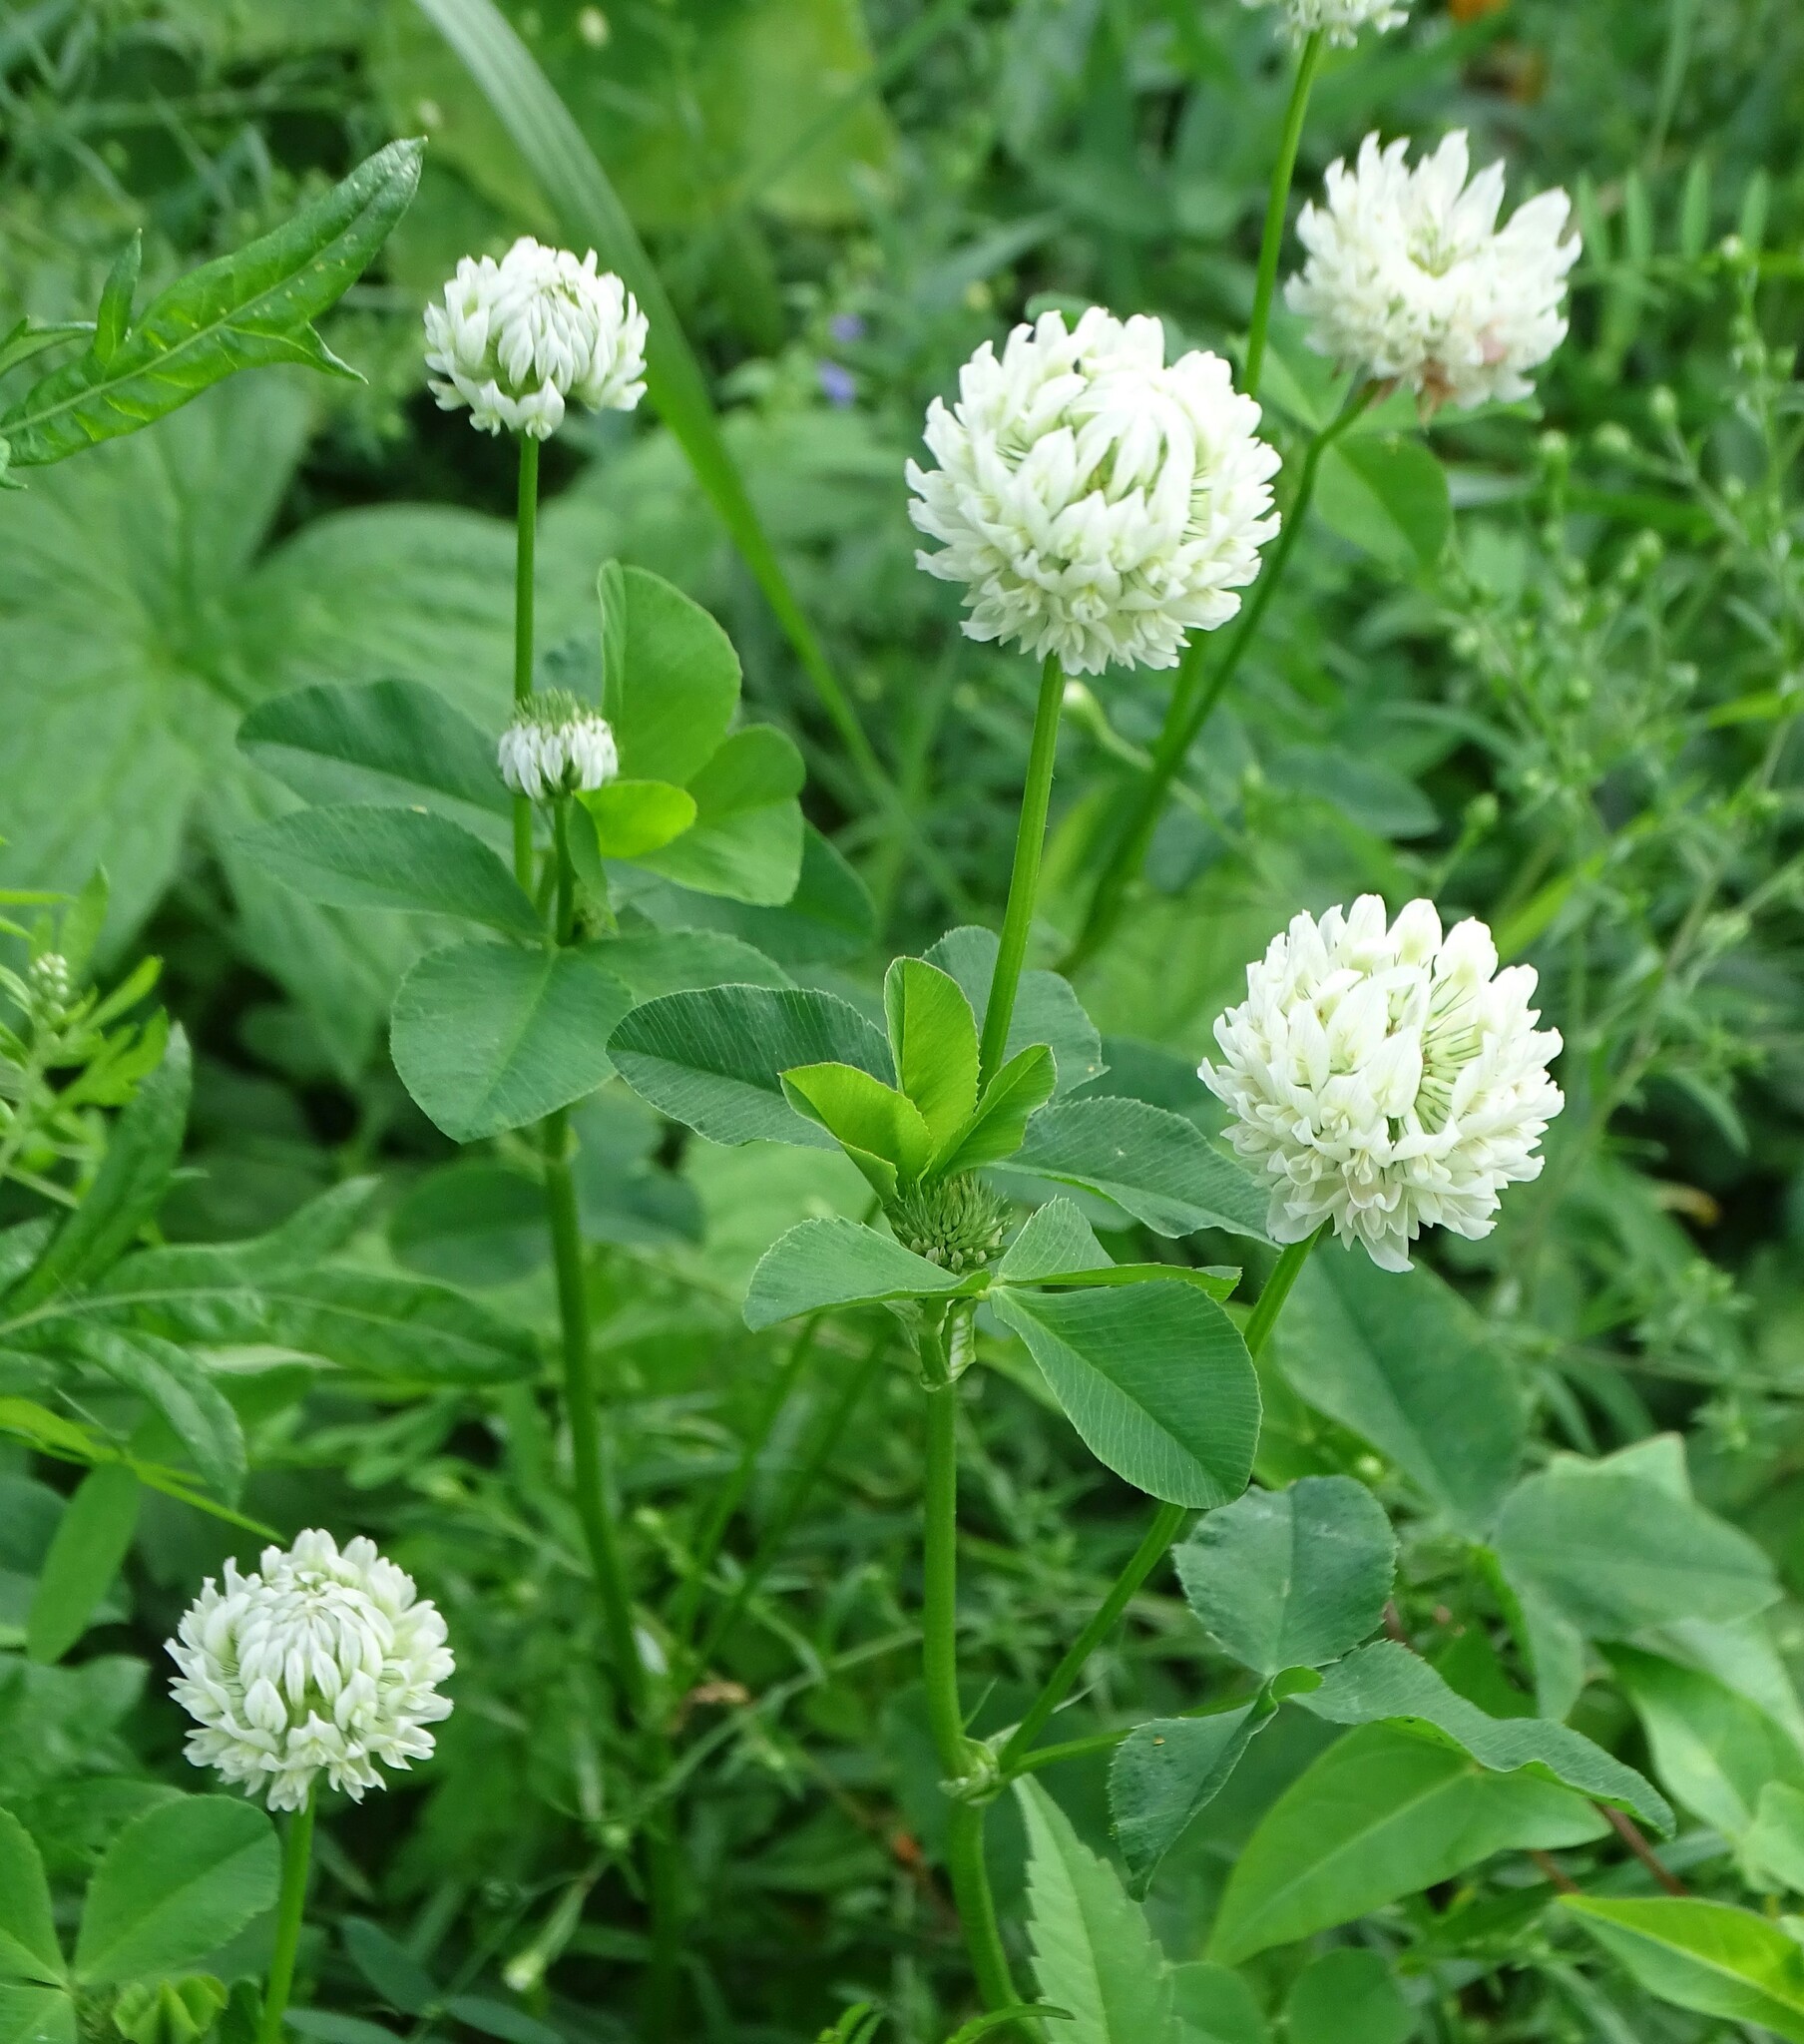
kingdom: Plantae
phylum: Tracheophyta
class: Magnoliopsida
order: Fabales
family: Fabaceae
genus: Trifolium
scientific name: Trifolium hybridum
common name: Alsike clover
